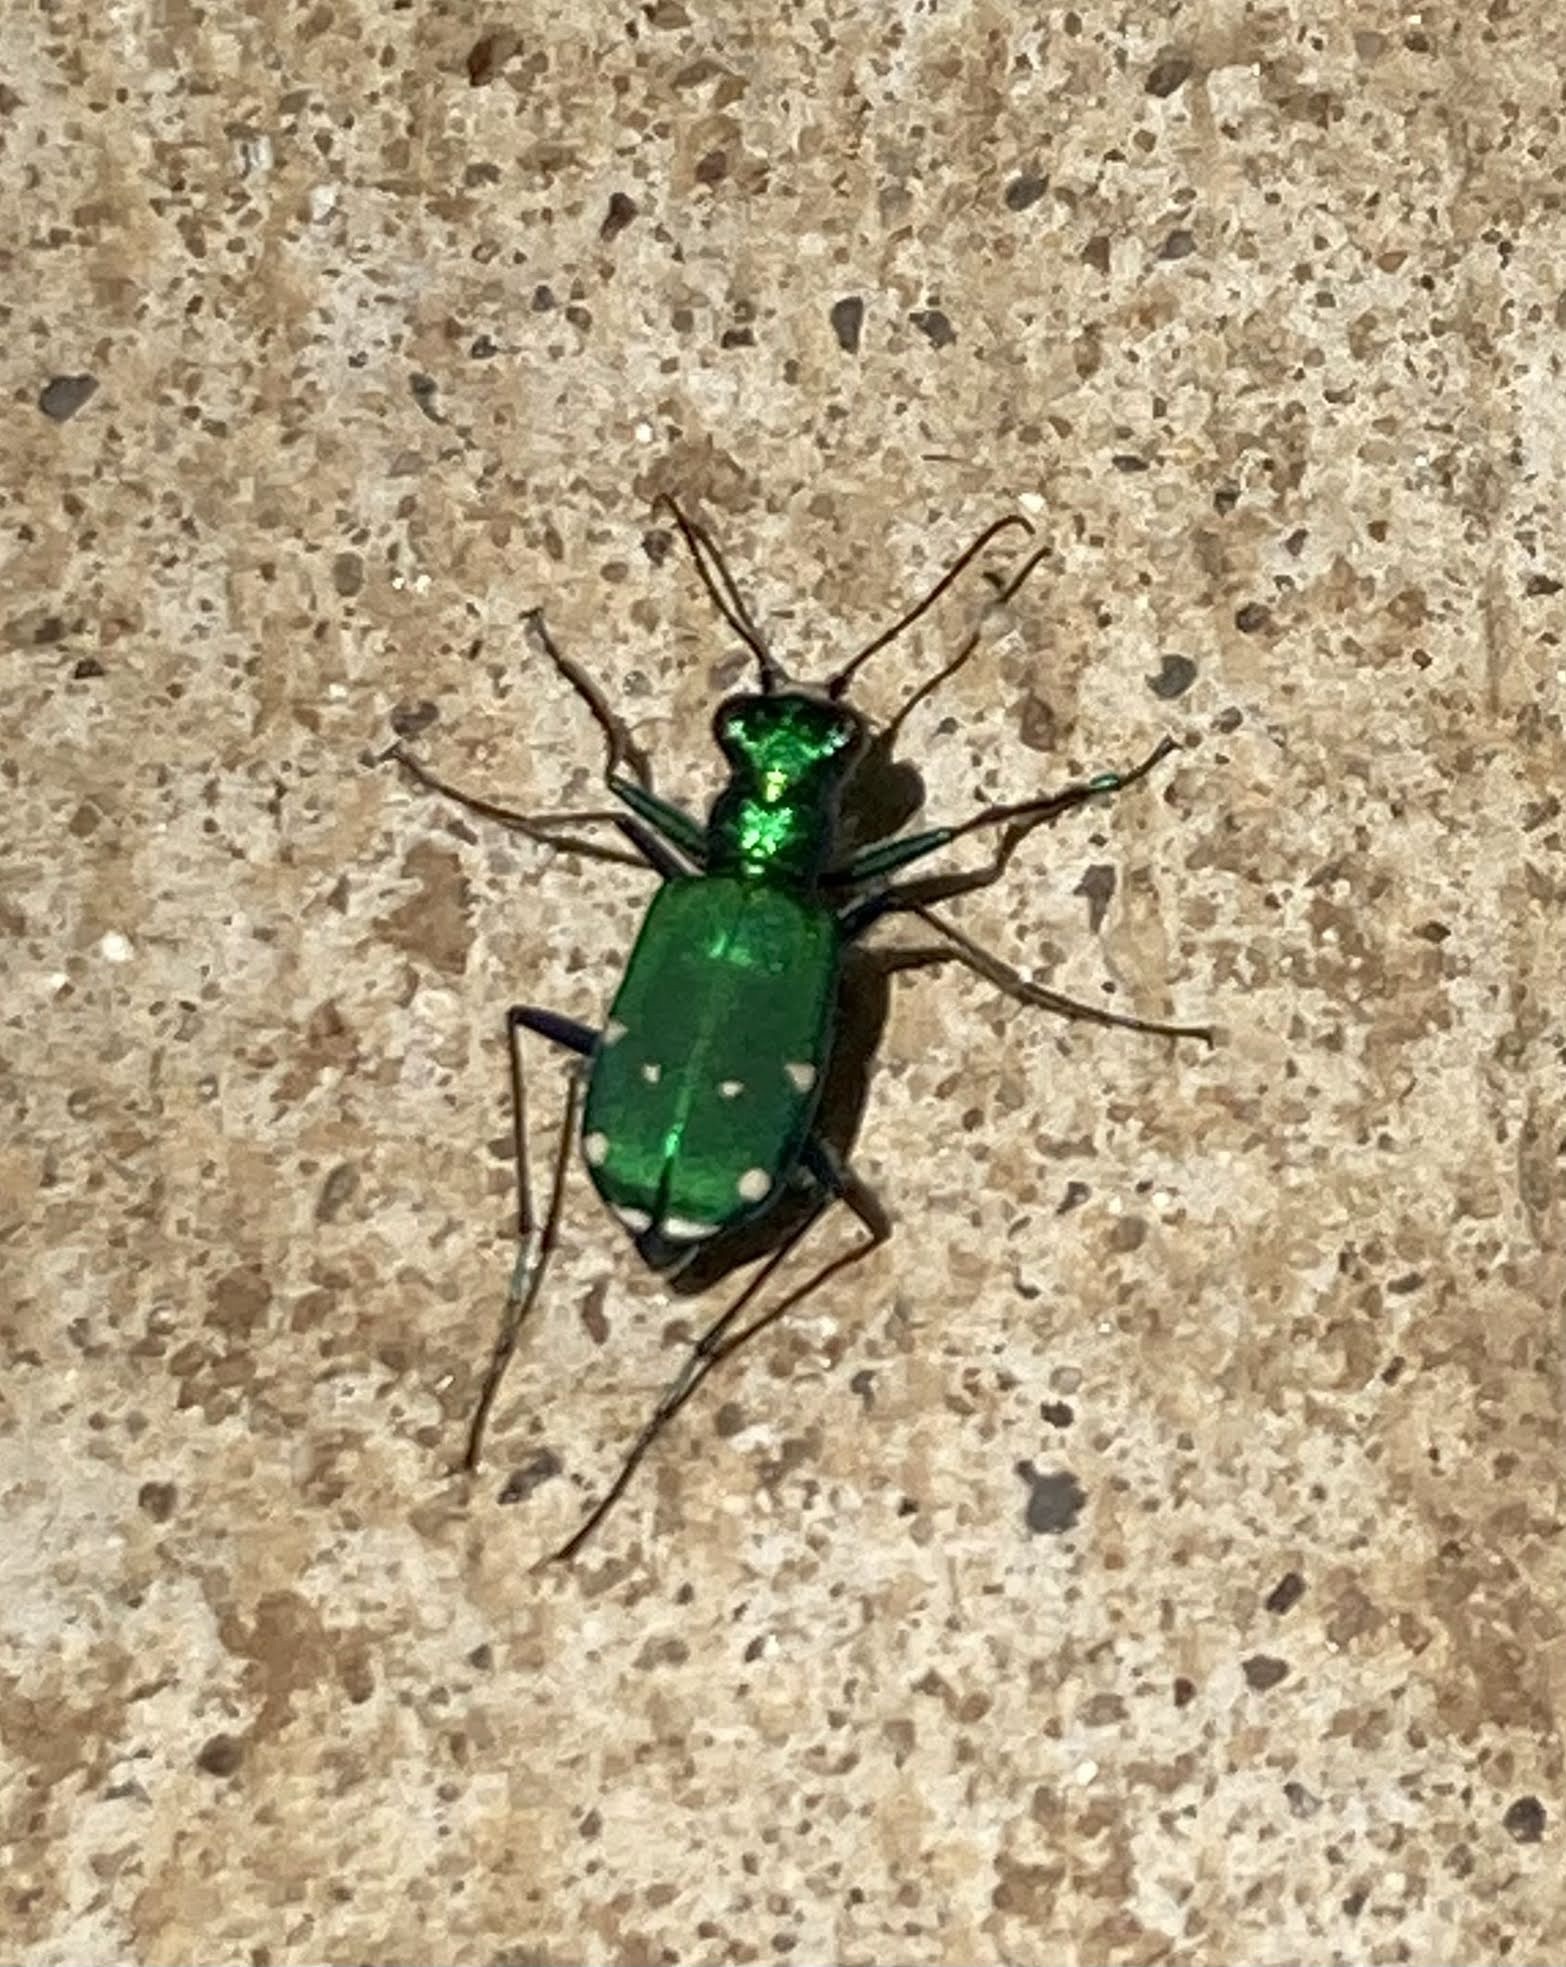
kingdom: Animalia
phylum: Arthropoda
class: Insecta
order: Coleoptera
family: Carabidae
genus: Cicindela
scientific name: Cicindela sexguttata
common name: Six-spotted tiger beetle
